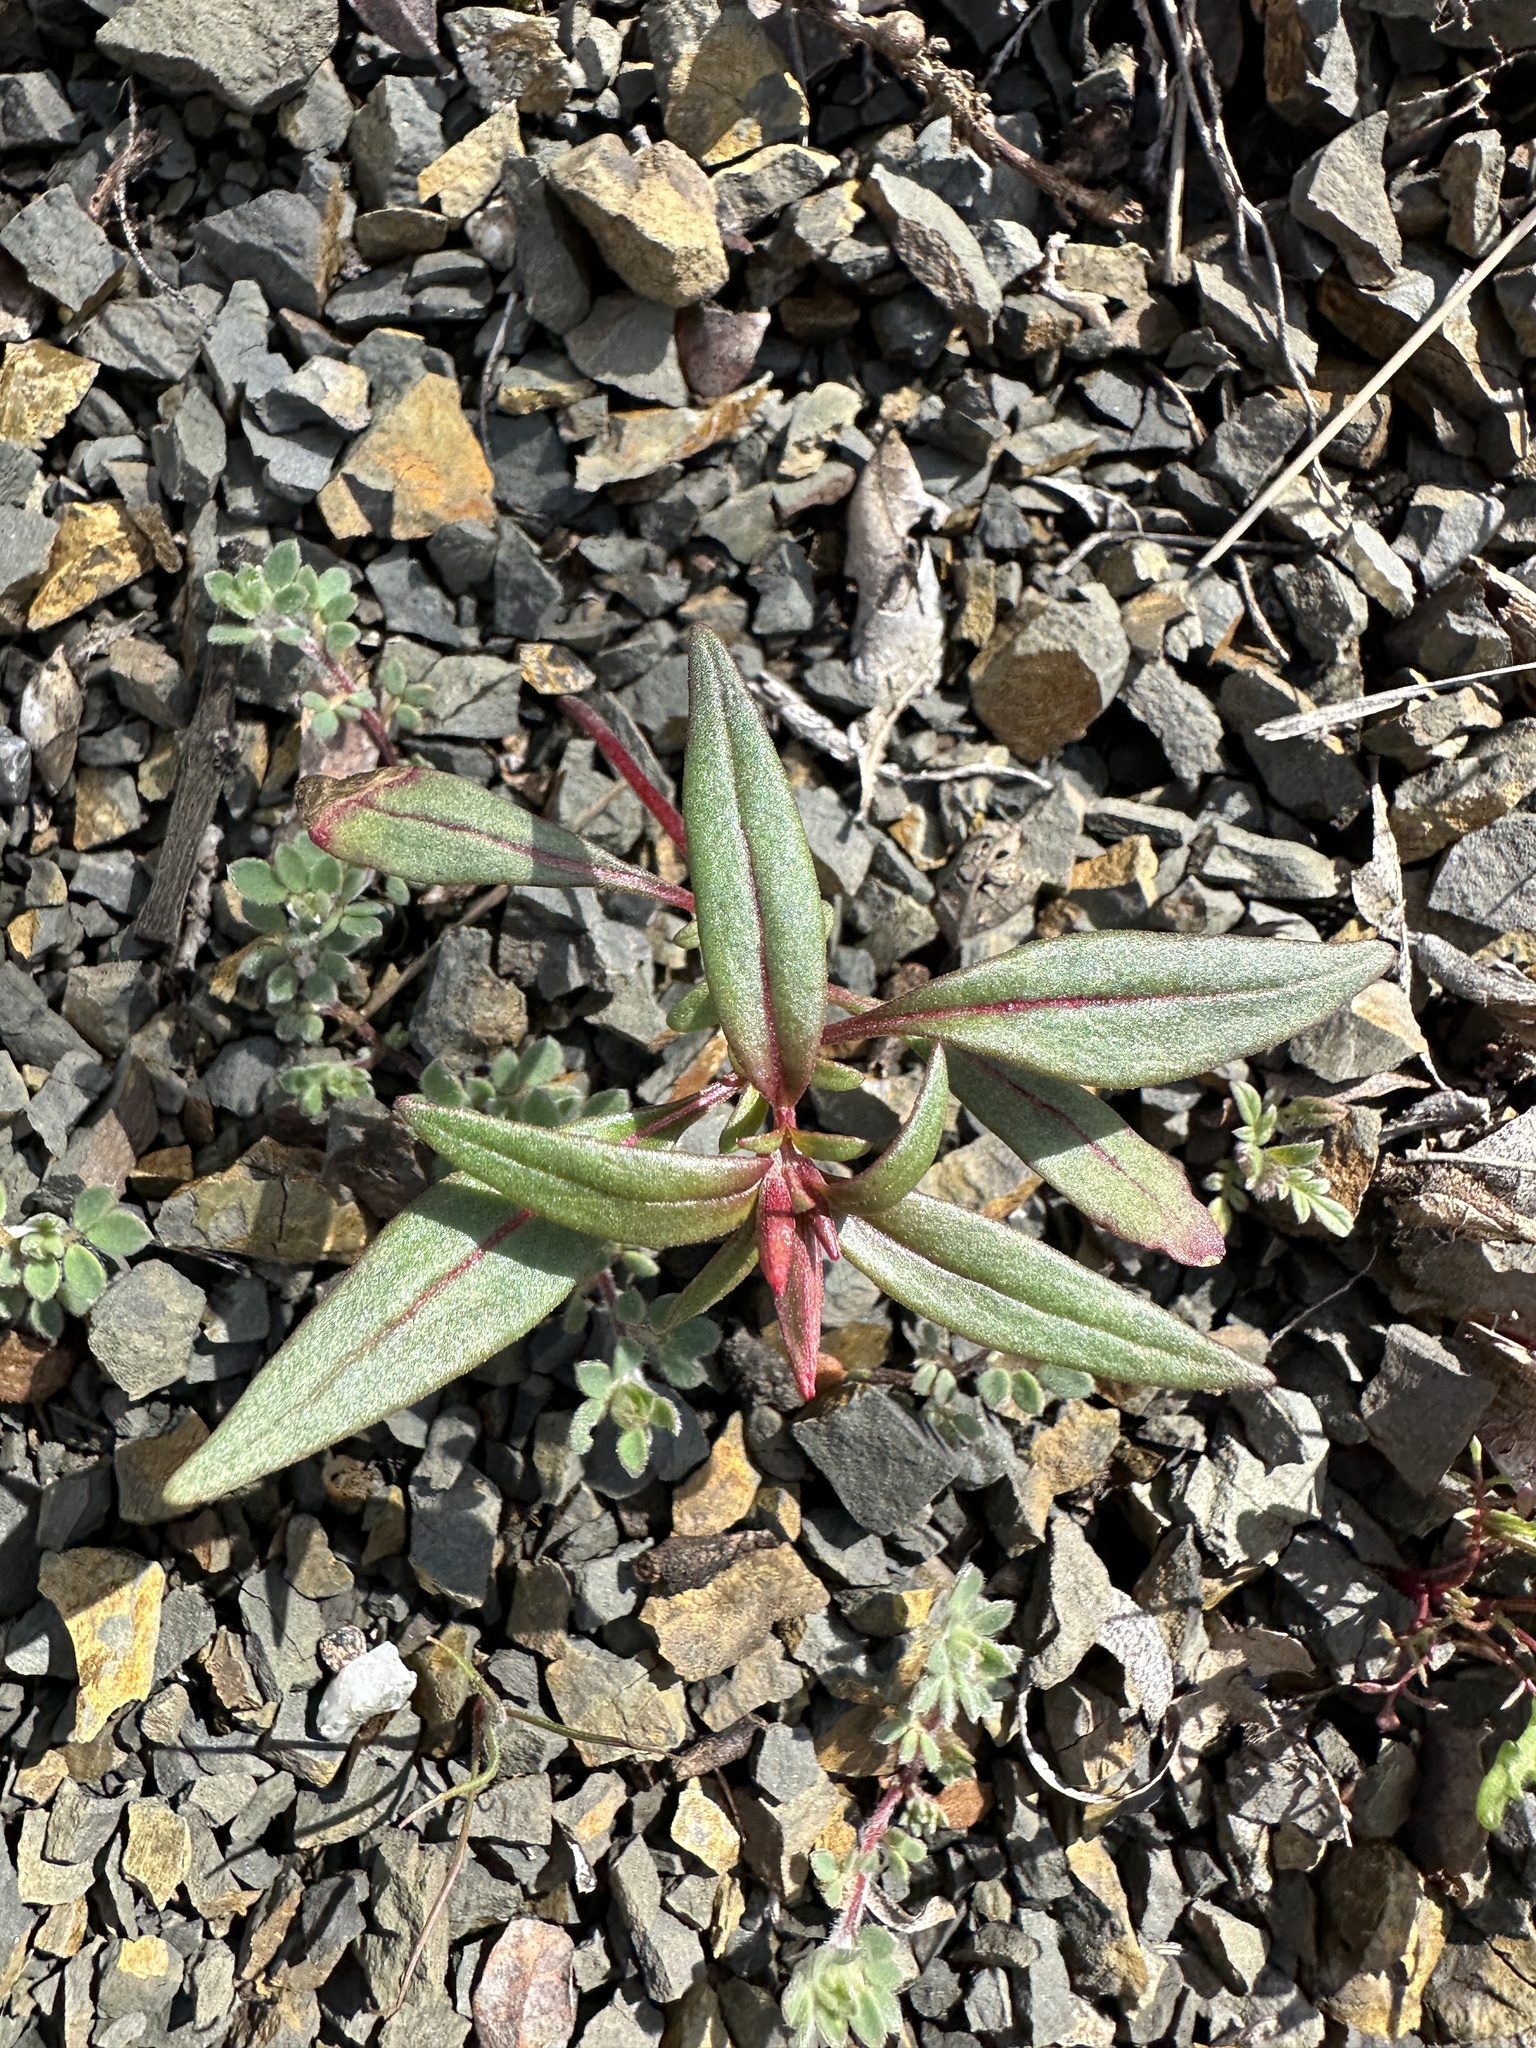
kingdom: Plantae
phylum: Tracheophyta
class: Magnoliopsida
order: Myrtales
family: Onagraceae
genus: Clarkia
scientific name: Clarkia breweri
